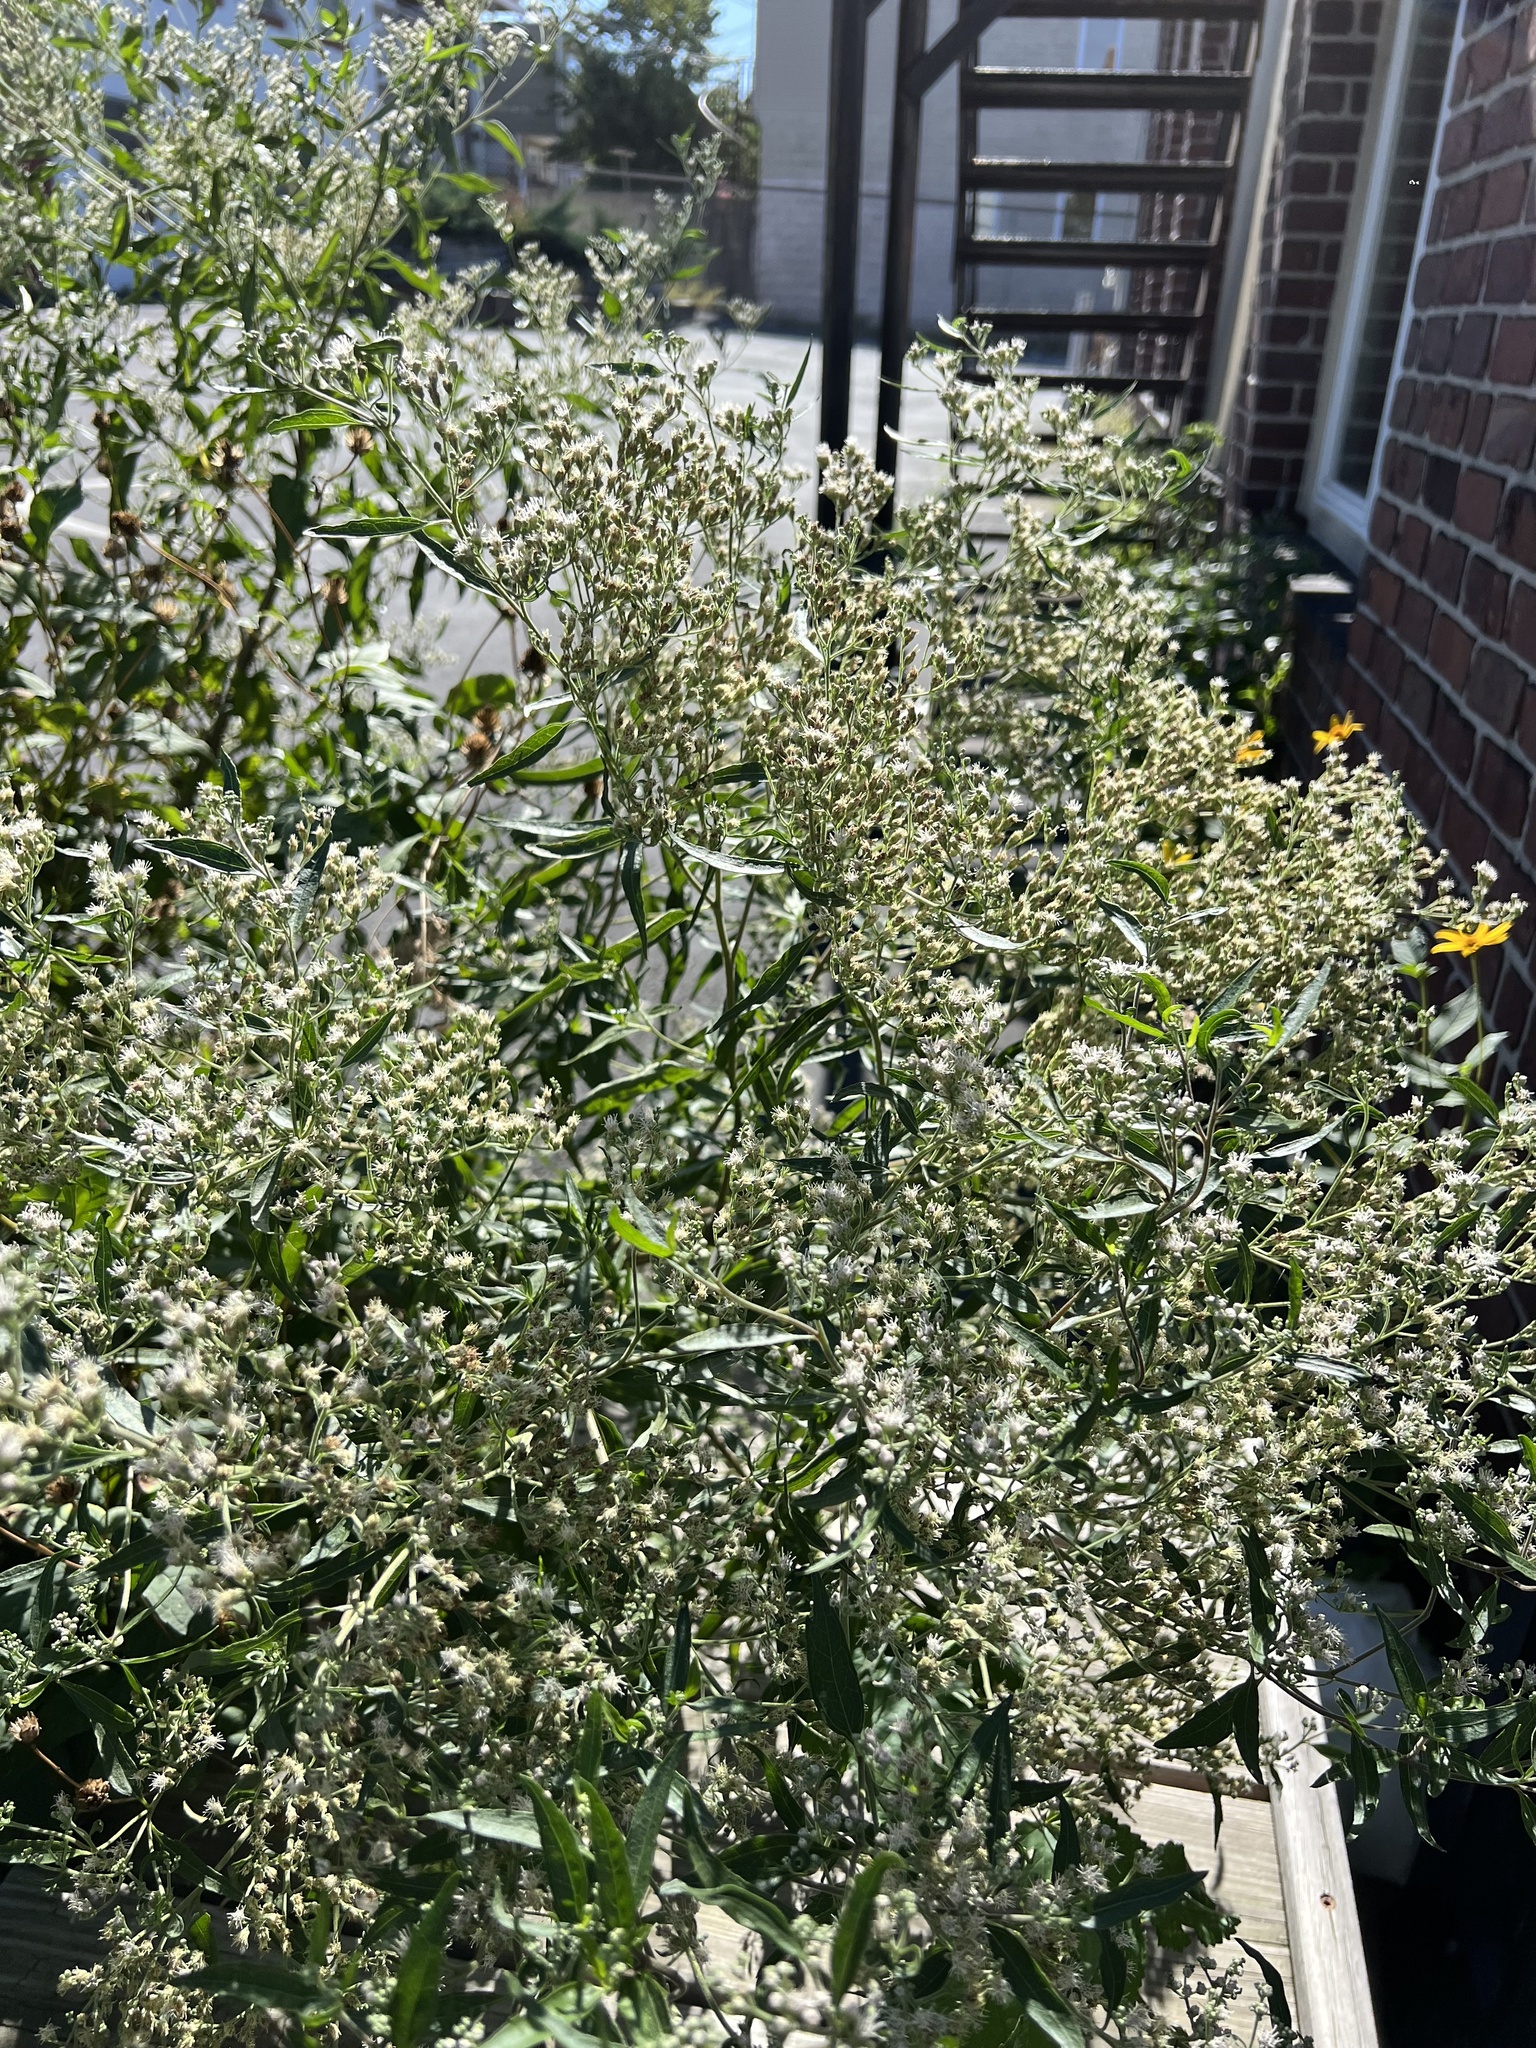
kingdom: Plantae
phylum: Tracheophyta
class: Magnoliopsida
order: Asterales
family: Asteraceae
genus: Eupatorium
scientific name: Eupatorium serotinum
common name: Late boneset
